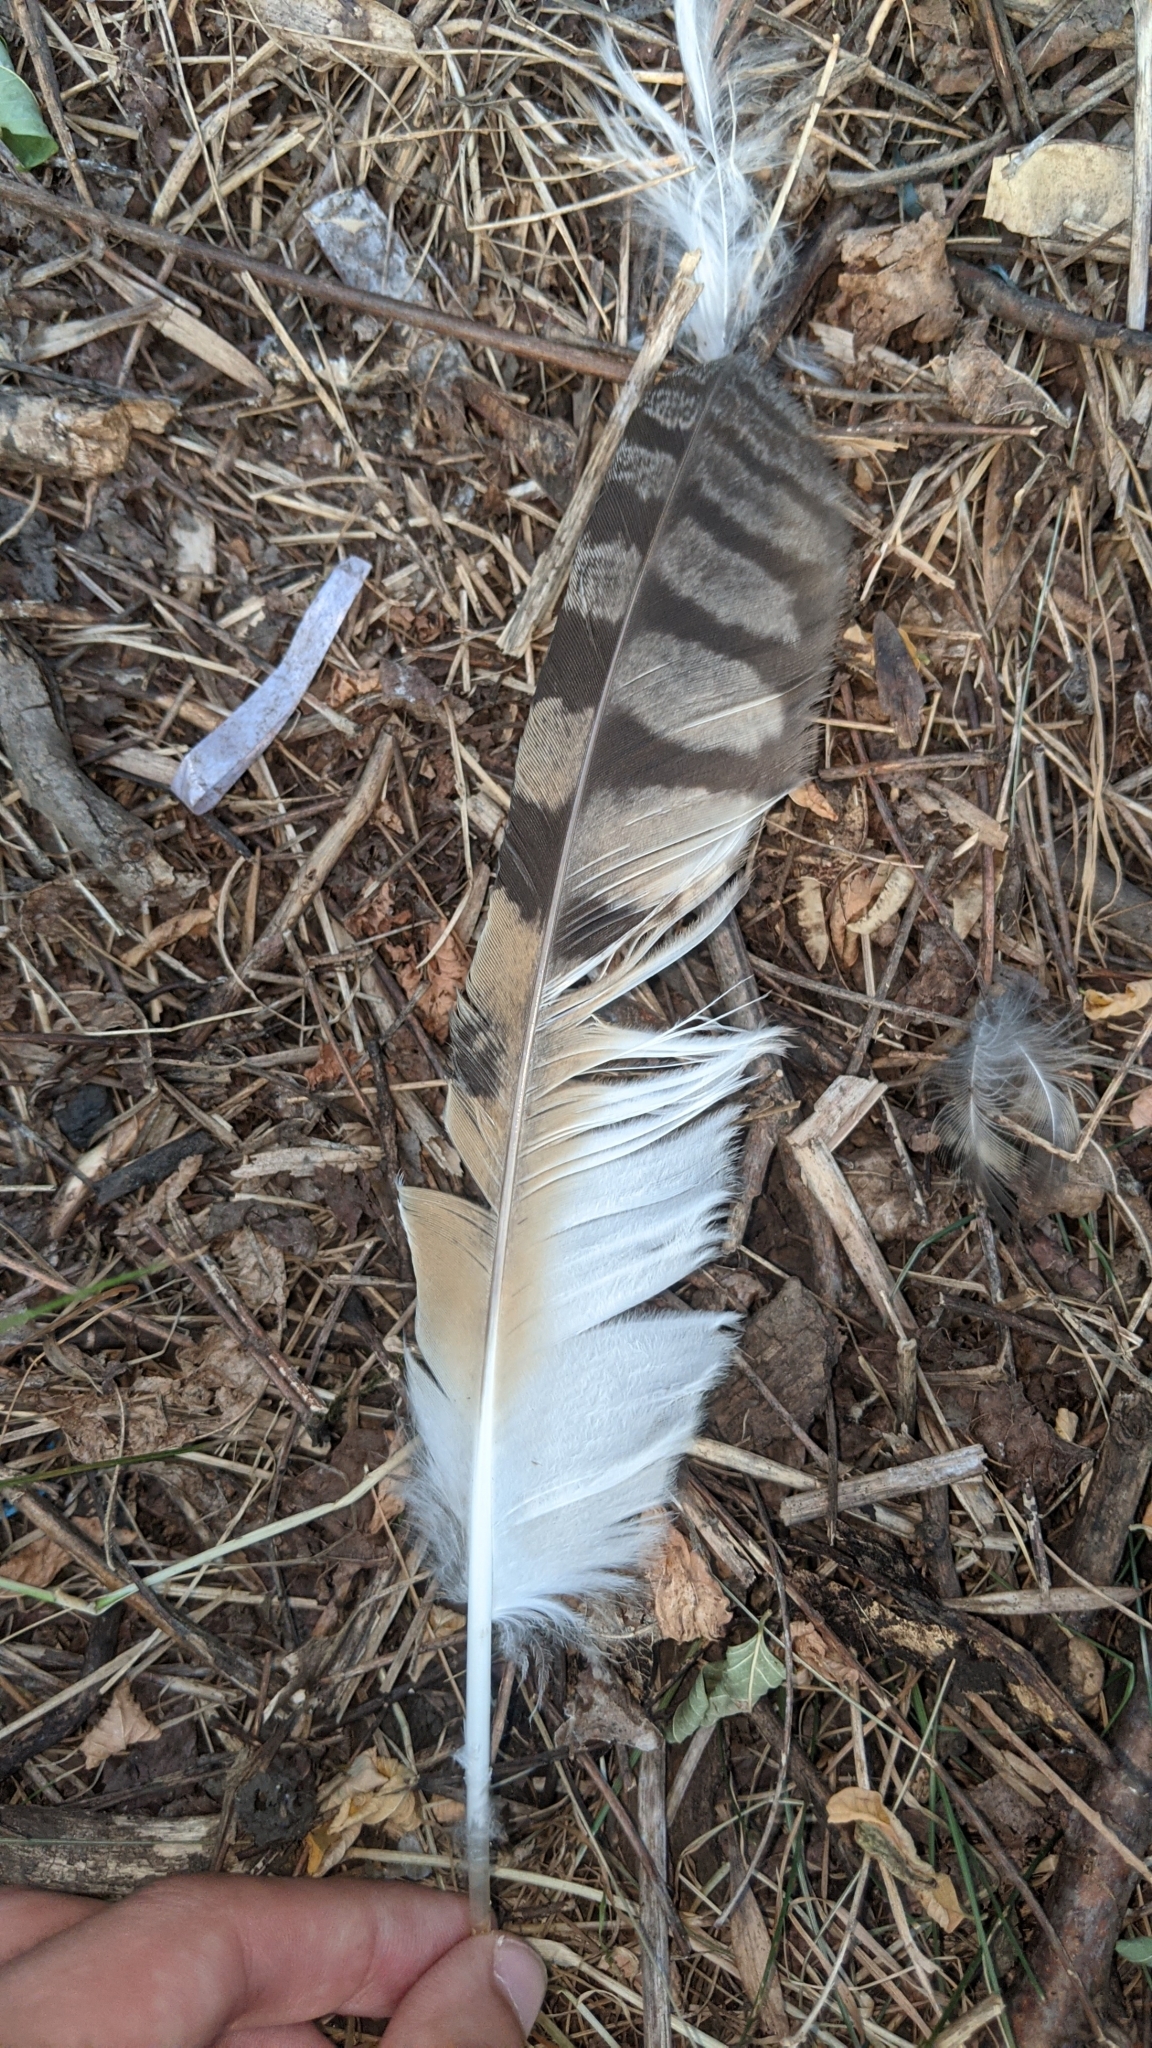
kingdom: Animalia
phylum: Chordata
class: Aves
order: Strigiformes
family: Strigidae
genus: Asio
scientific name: Asio otus
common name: Long-eared owl
